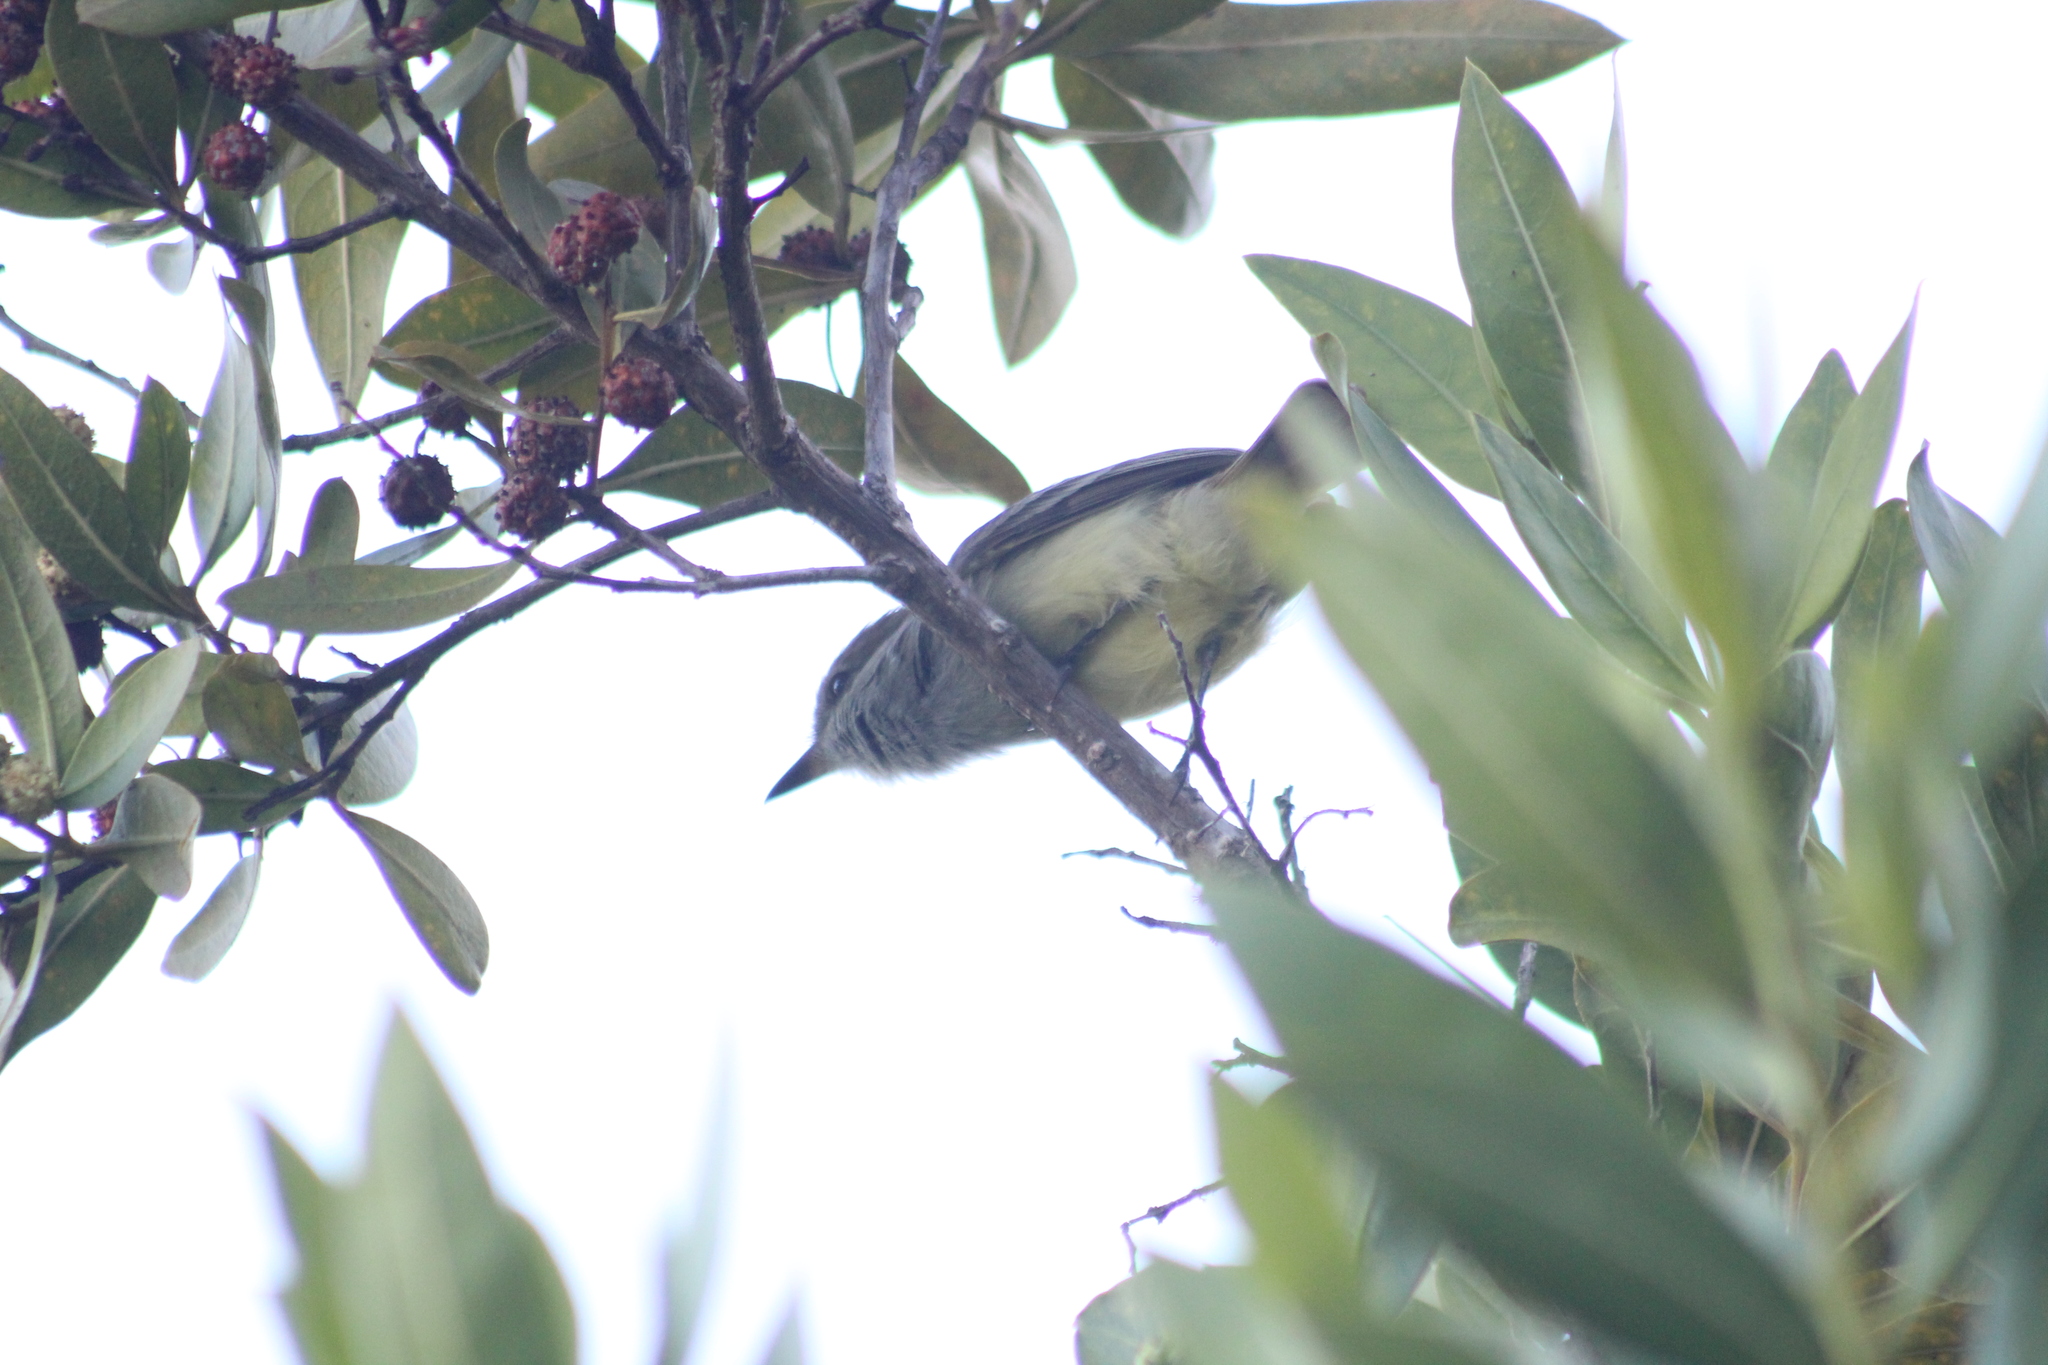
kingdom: Animalia
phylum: Chordata
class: Aves
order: Passeriformes
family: Tyrannidae
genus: Myiarchus
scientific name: Myiarchus magnirostris
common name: Galapagos flycatcher
